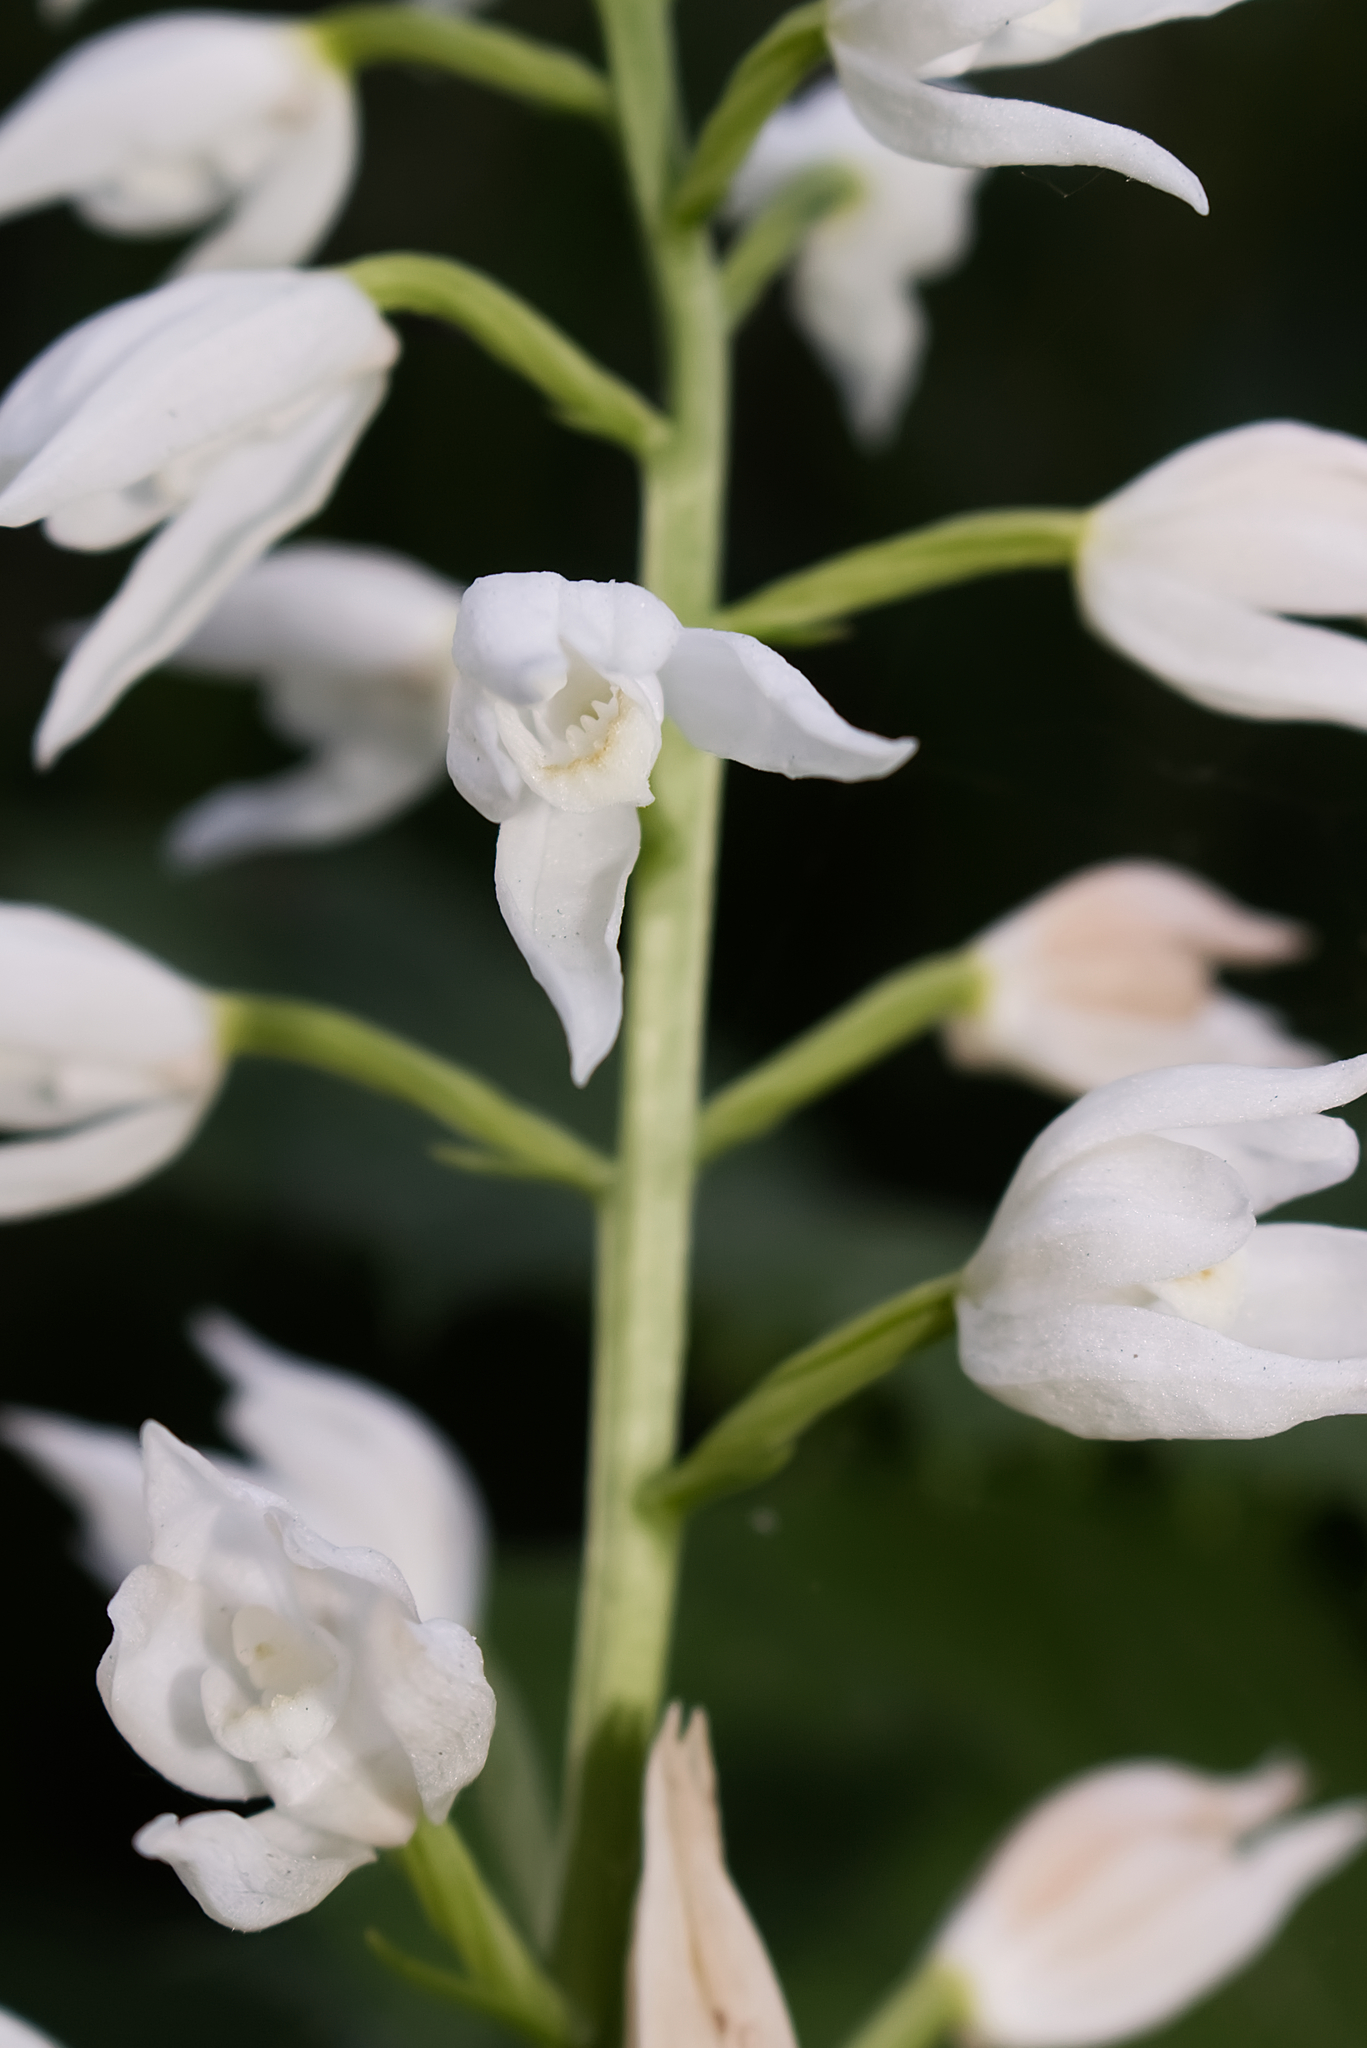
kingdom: Plantae
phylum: Tracheophyta
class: Liliopsida
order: Asparagales
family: Orchidaceae
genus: Cephalanthera
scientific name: Cephalanthera longifolia
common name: Narrow-leaved helleborine
